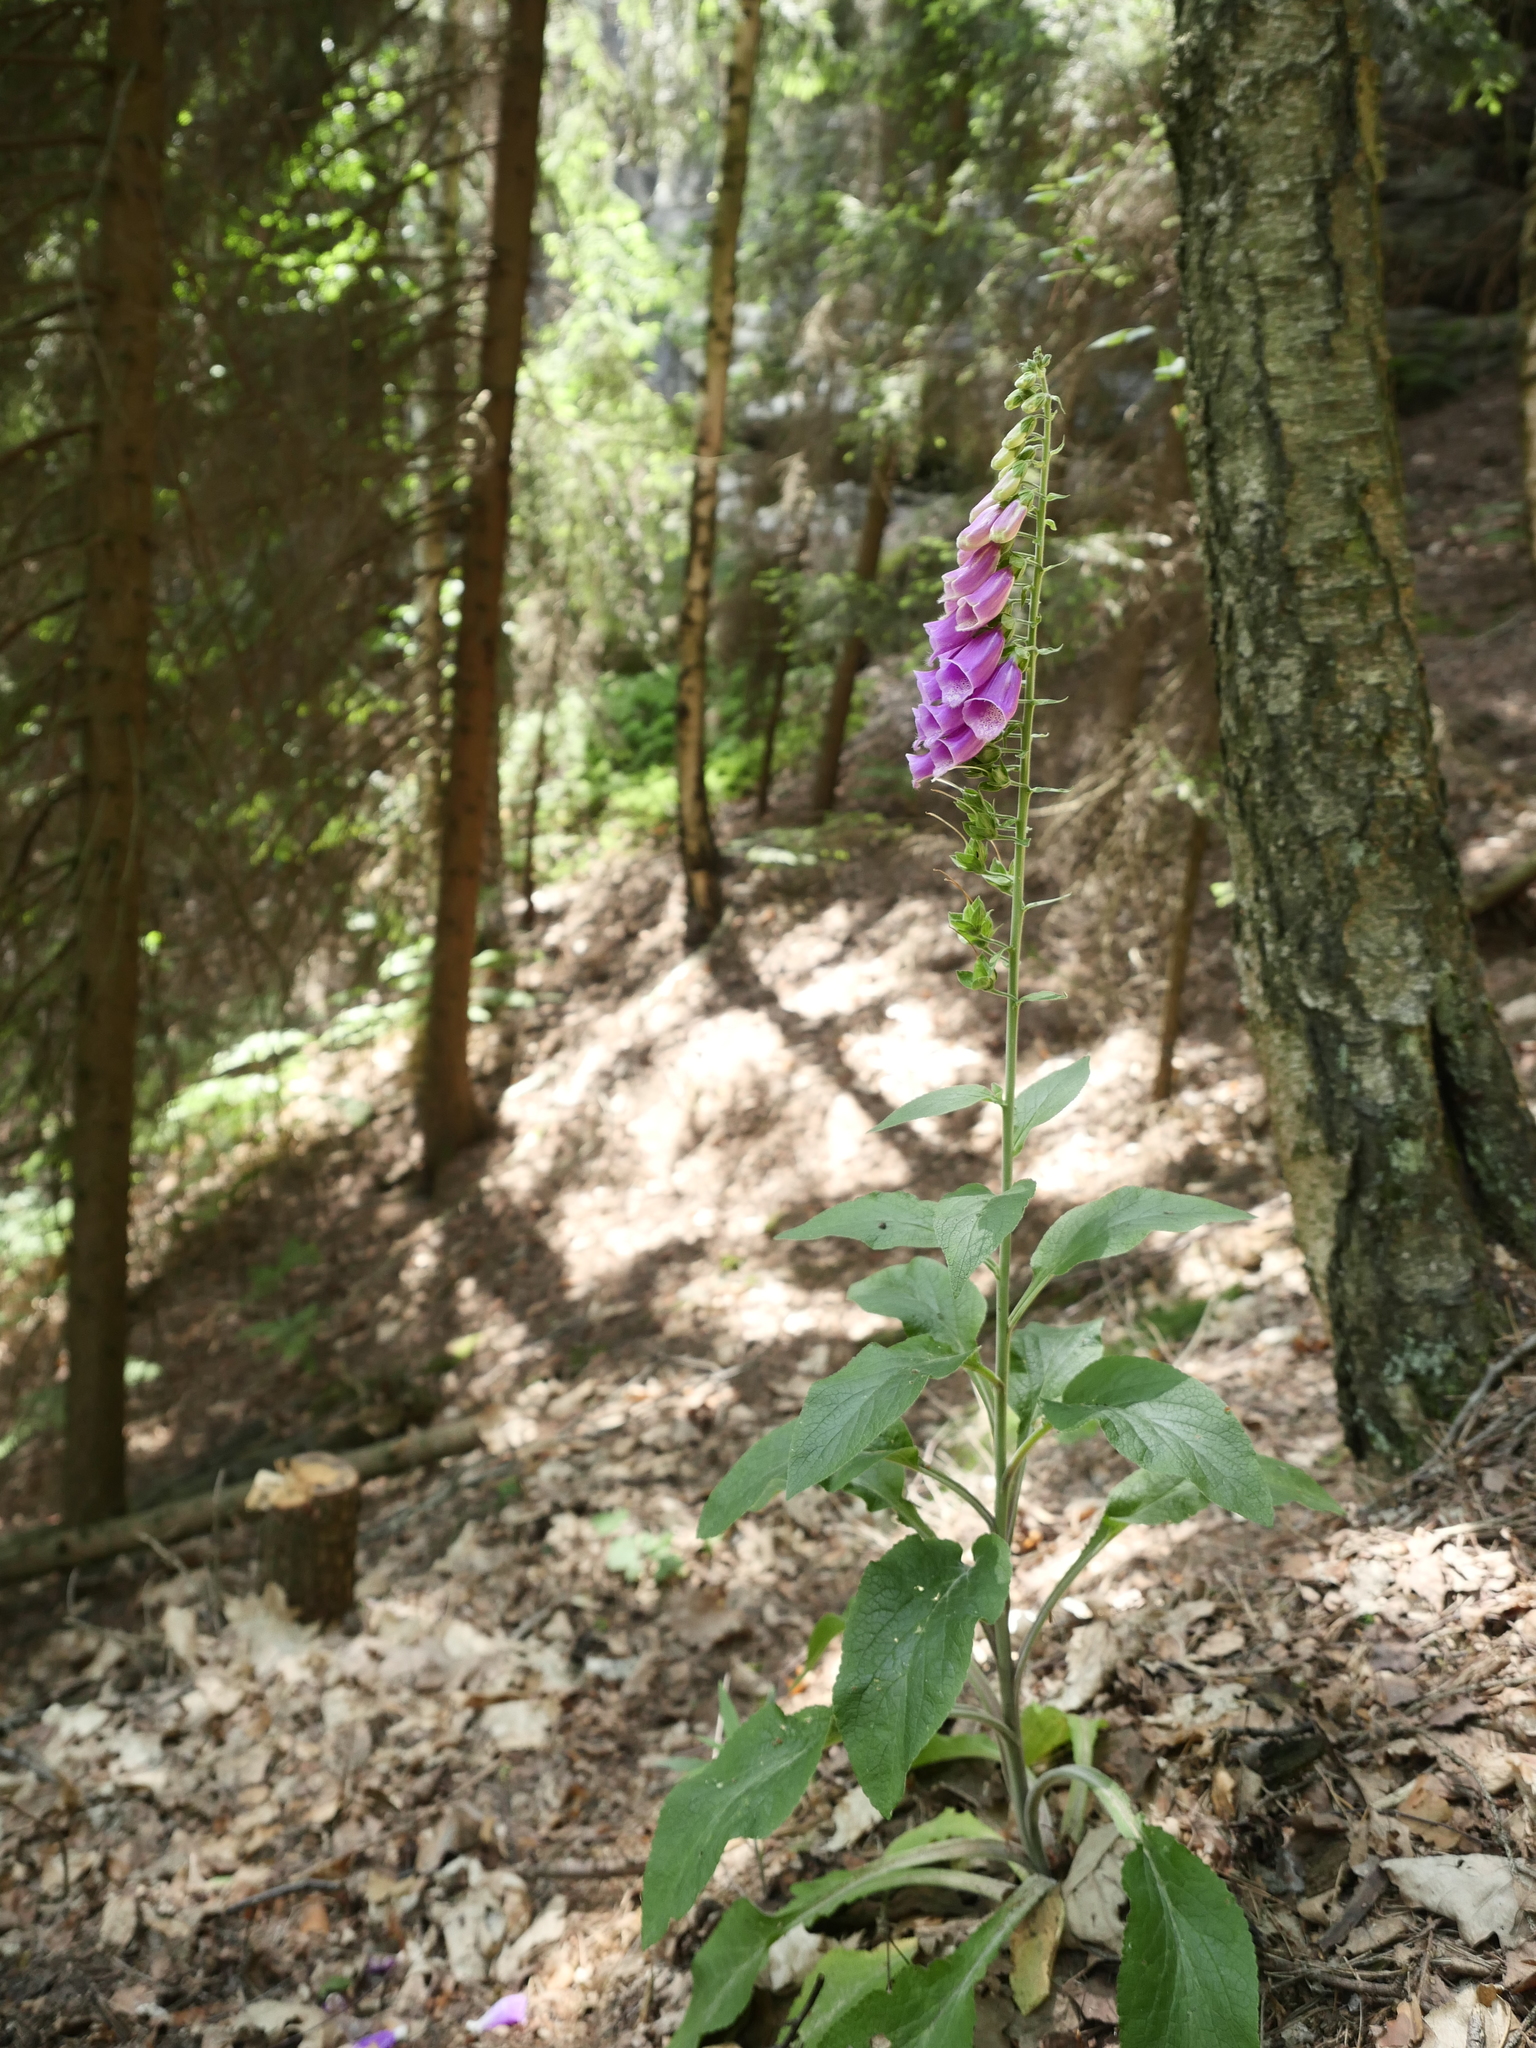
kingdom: Plantae
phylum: Tracheophyta
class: Magnoliopsida
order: Lamiales
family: Plantaginaceae
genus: Digitalis
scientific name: Digitalis purpurea
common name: Foxglove
